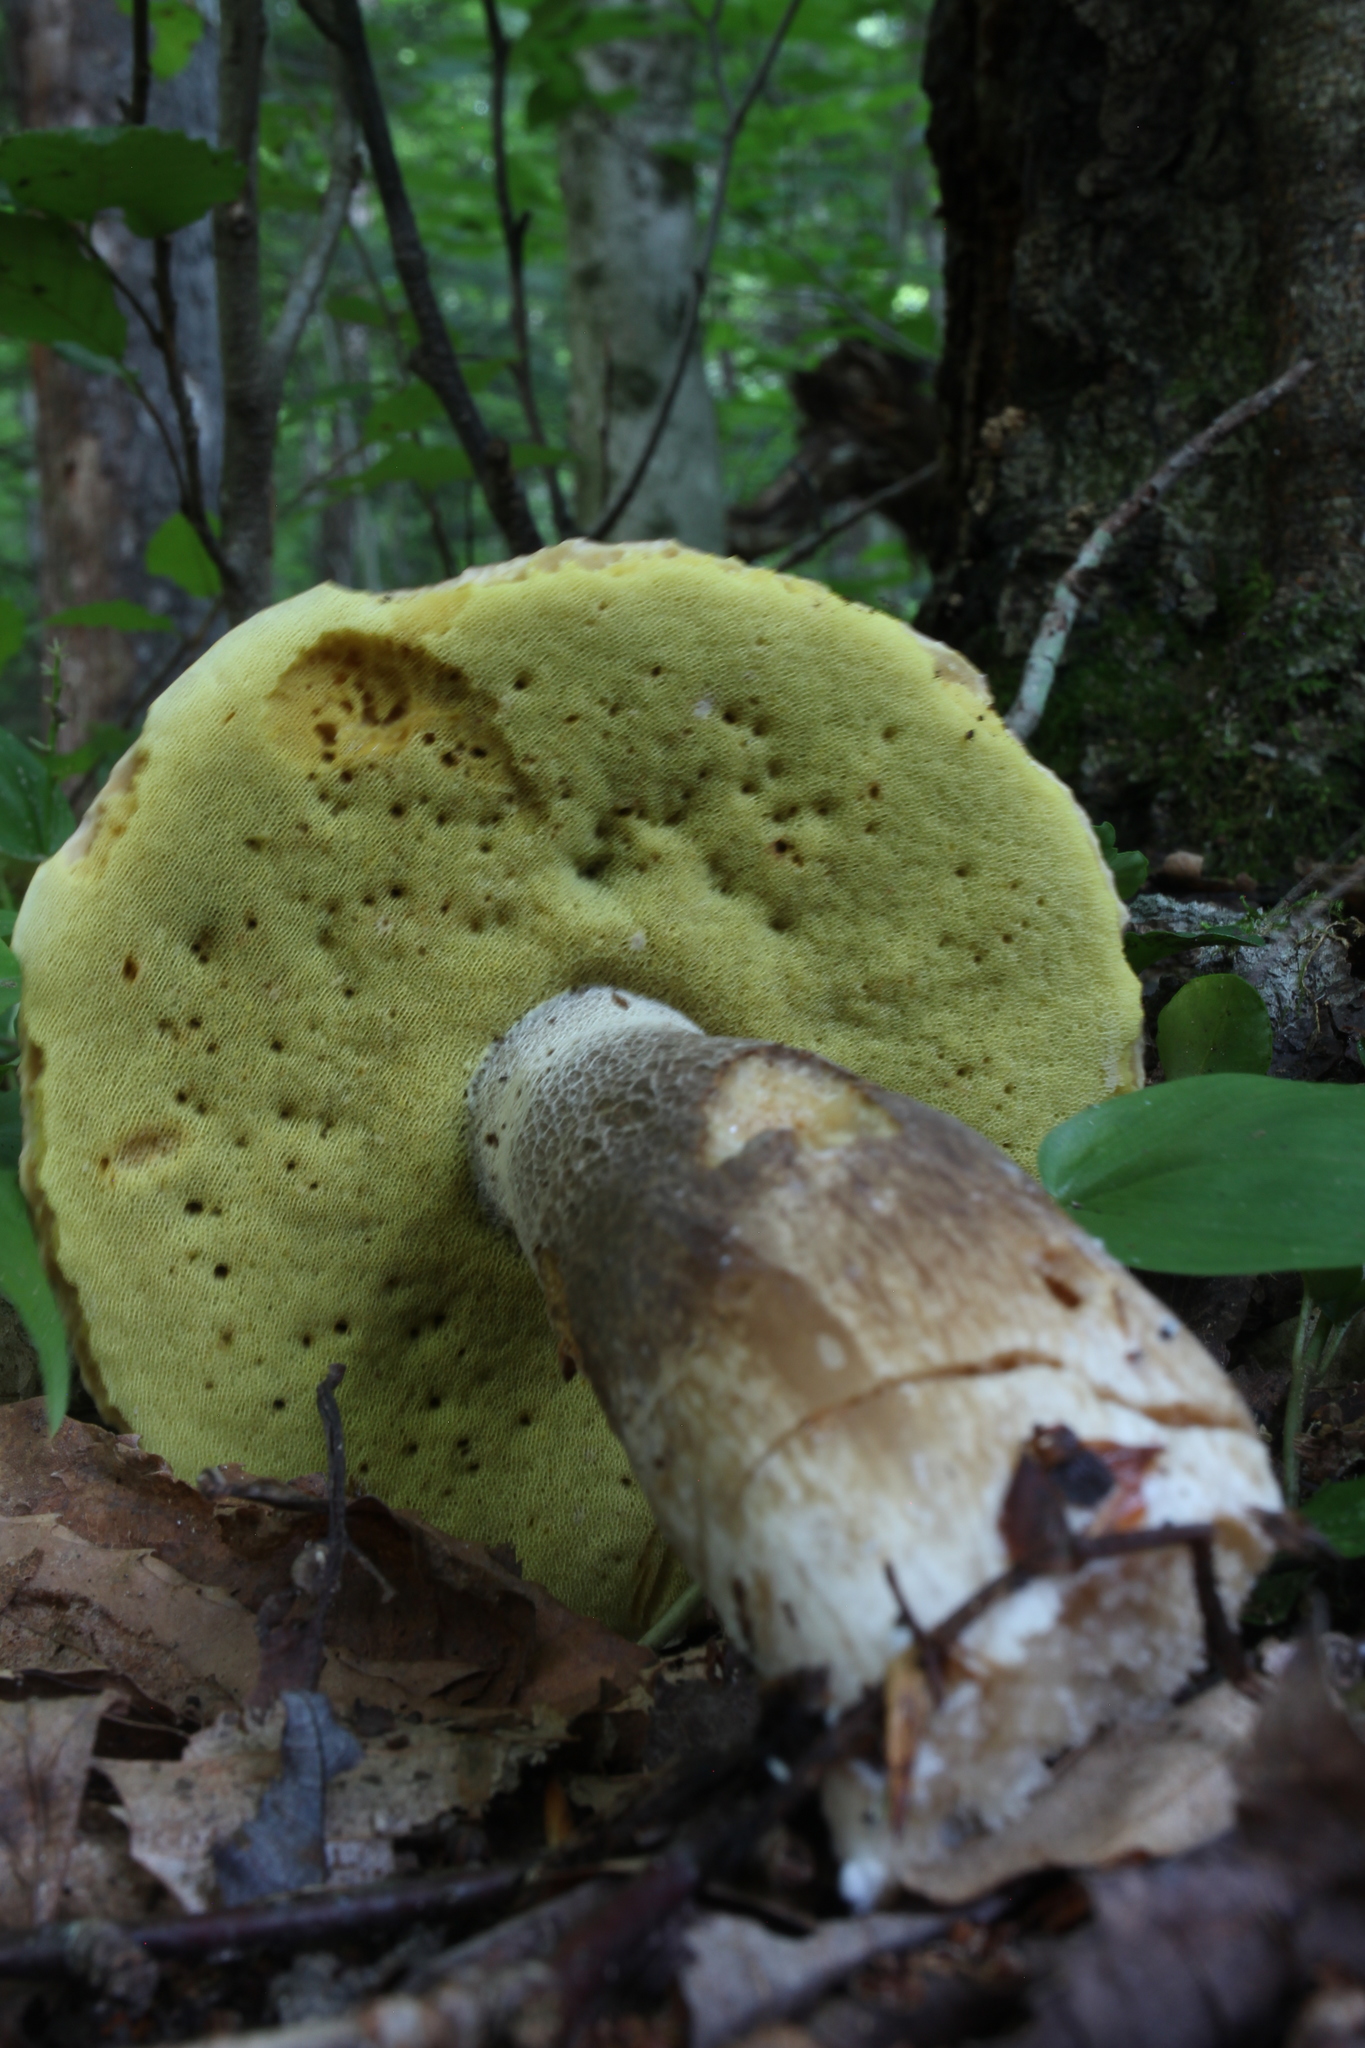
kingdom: Fungi
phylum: Basidiomycota
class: Agaricomycetes
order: Boletales
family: Boletaceae
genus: Boletus
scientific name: Boletus variipes
